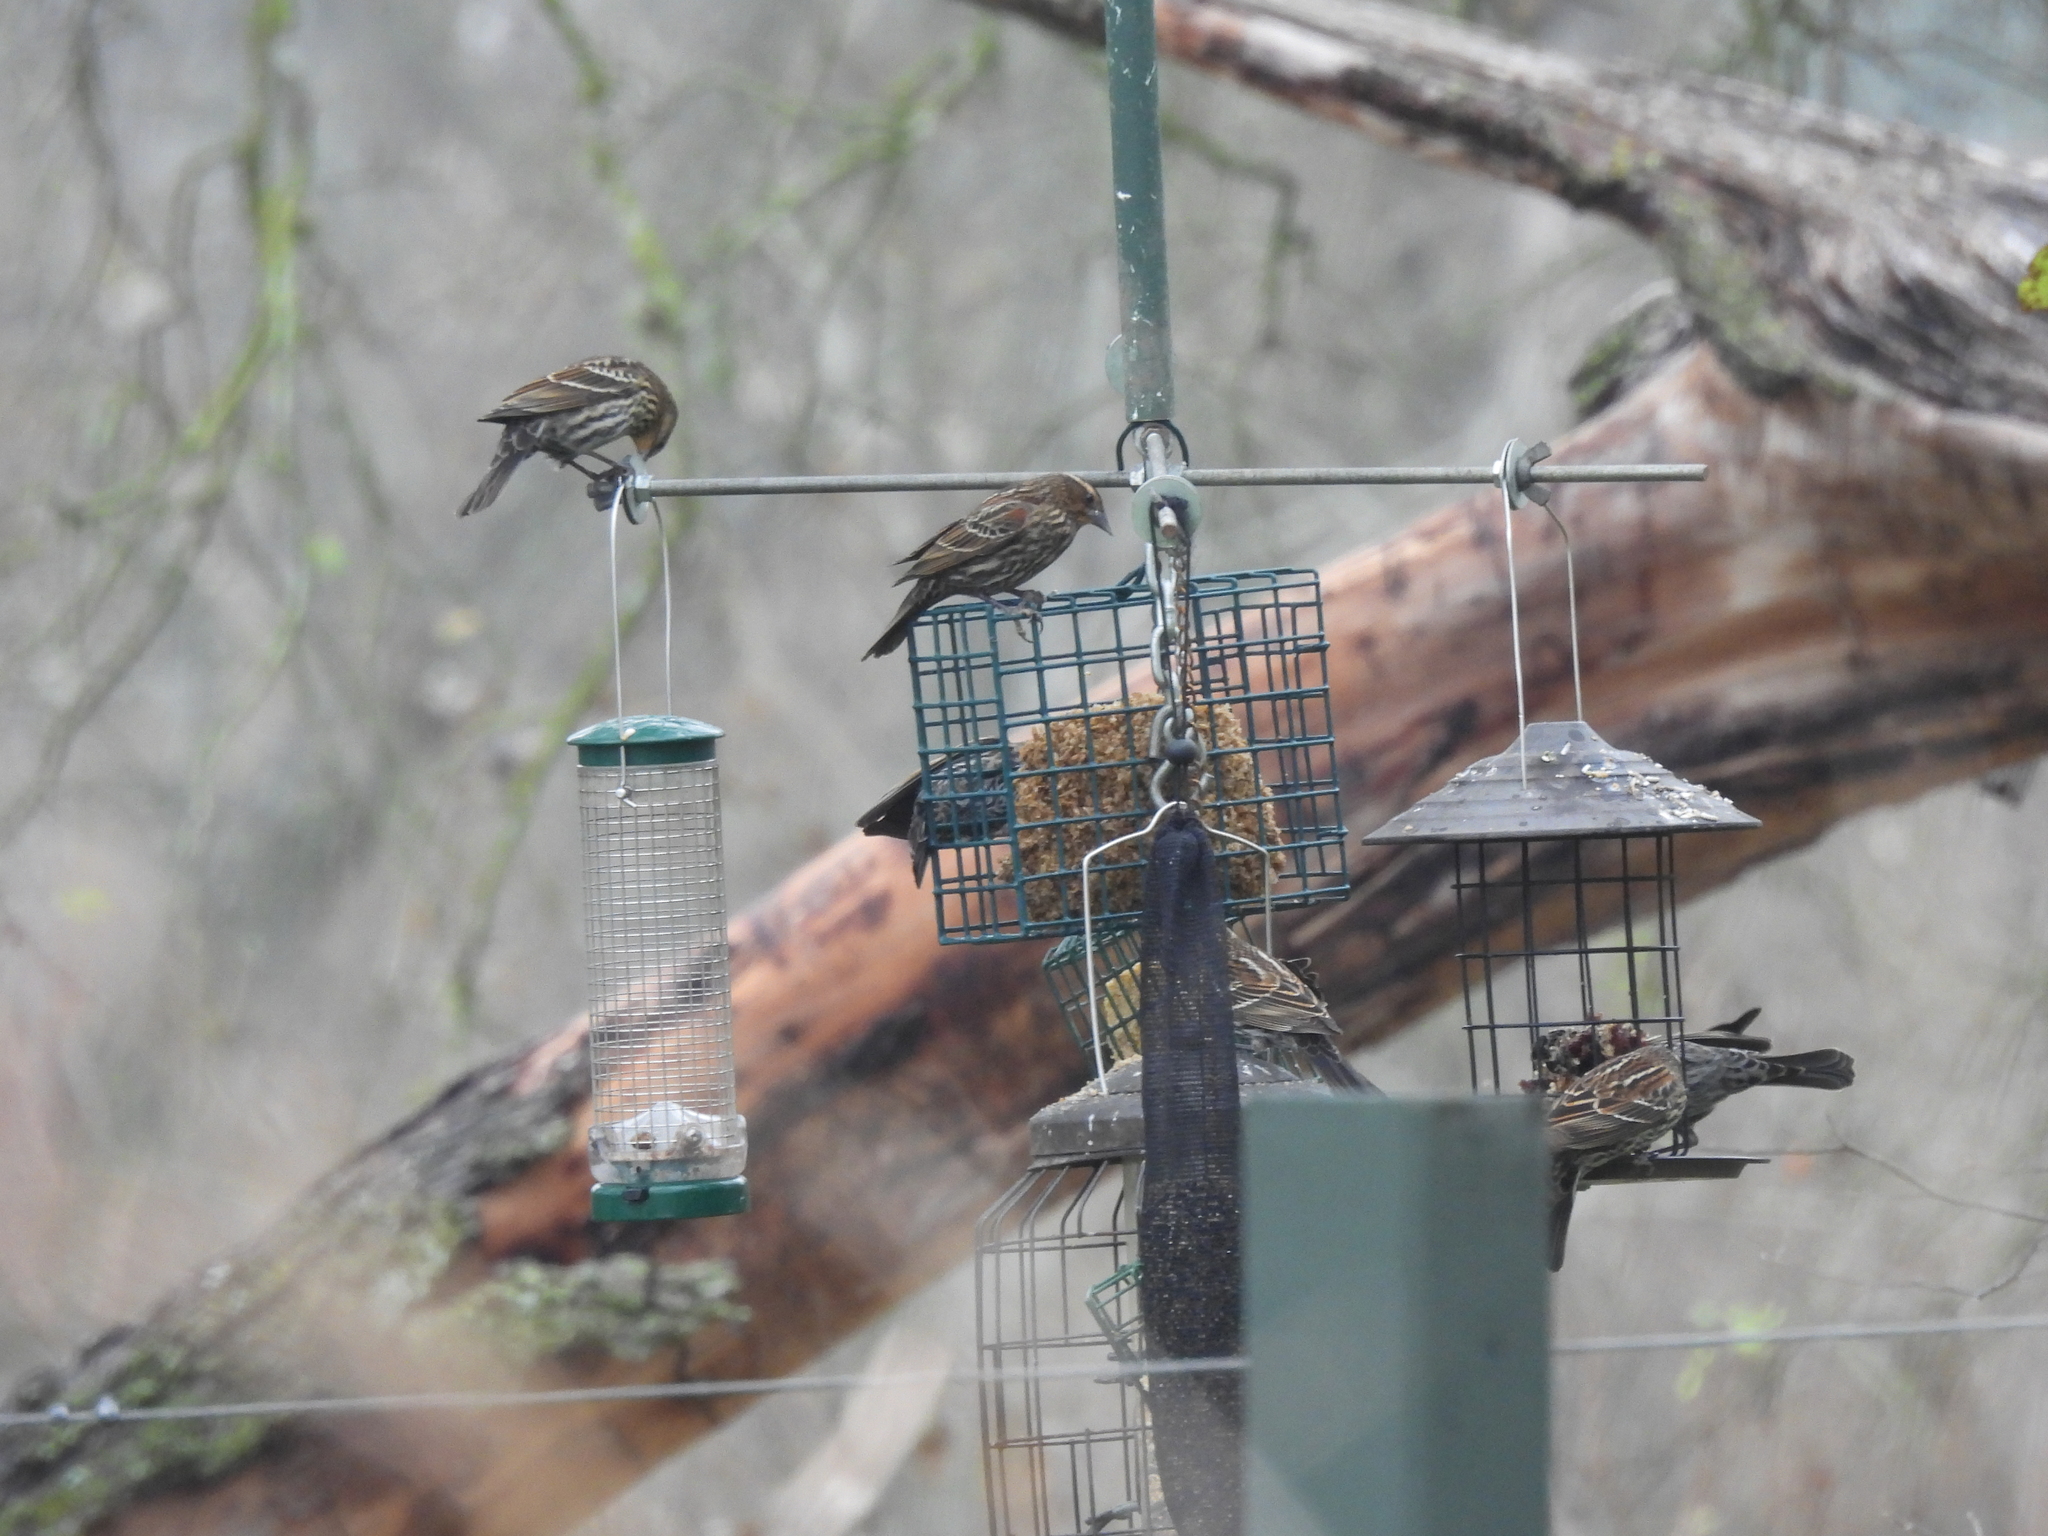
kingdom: Animalia
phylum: Chordata
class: Aves
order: Passeriformes
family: Icteridae
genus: Agelaius
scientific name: Agelaius phoeniceus
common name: Red-winged blackbird
